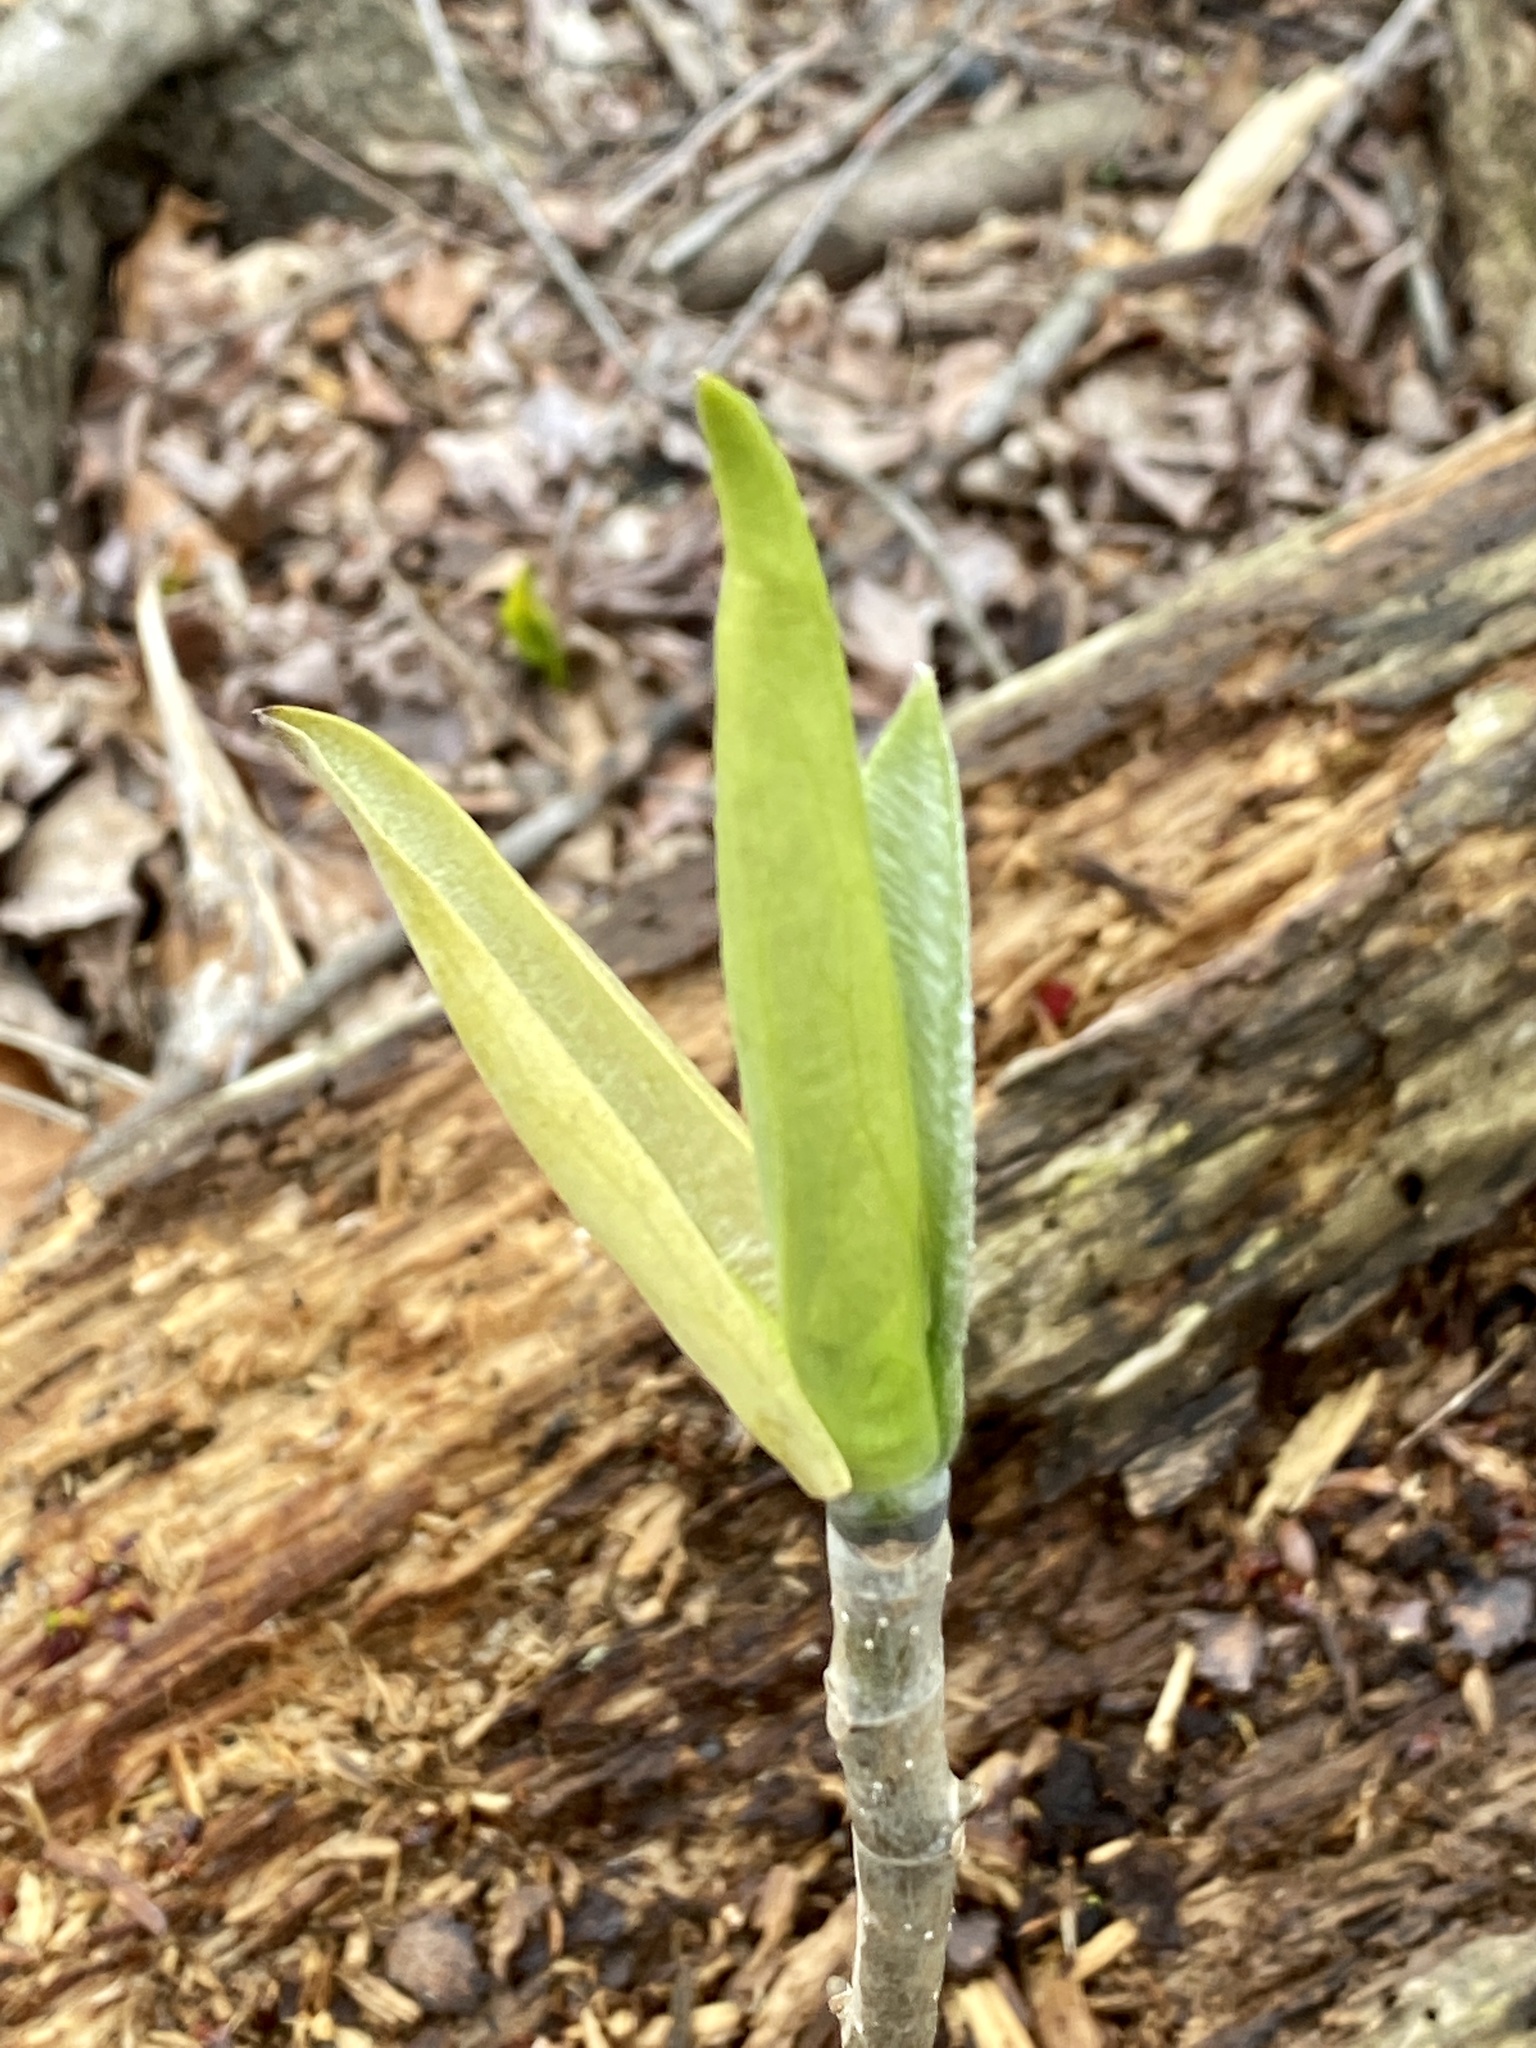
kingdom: Plantae
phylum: Tracheophyta
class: Magnoliopsida
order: Magnoliales
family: Magnoliaceae
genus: Magnolia
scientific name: Magnolia tripetala
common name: Umbrella magnolia
